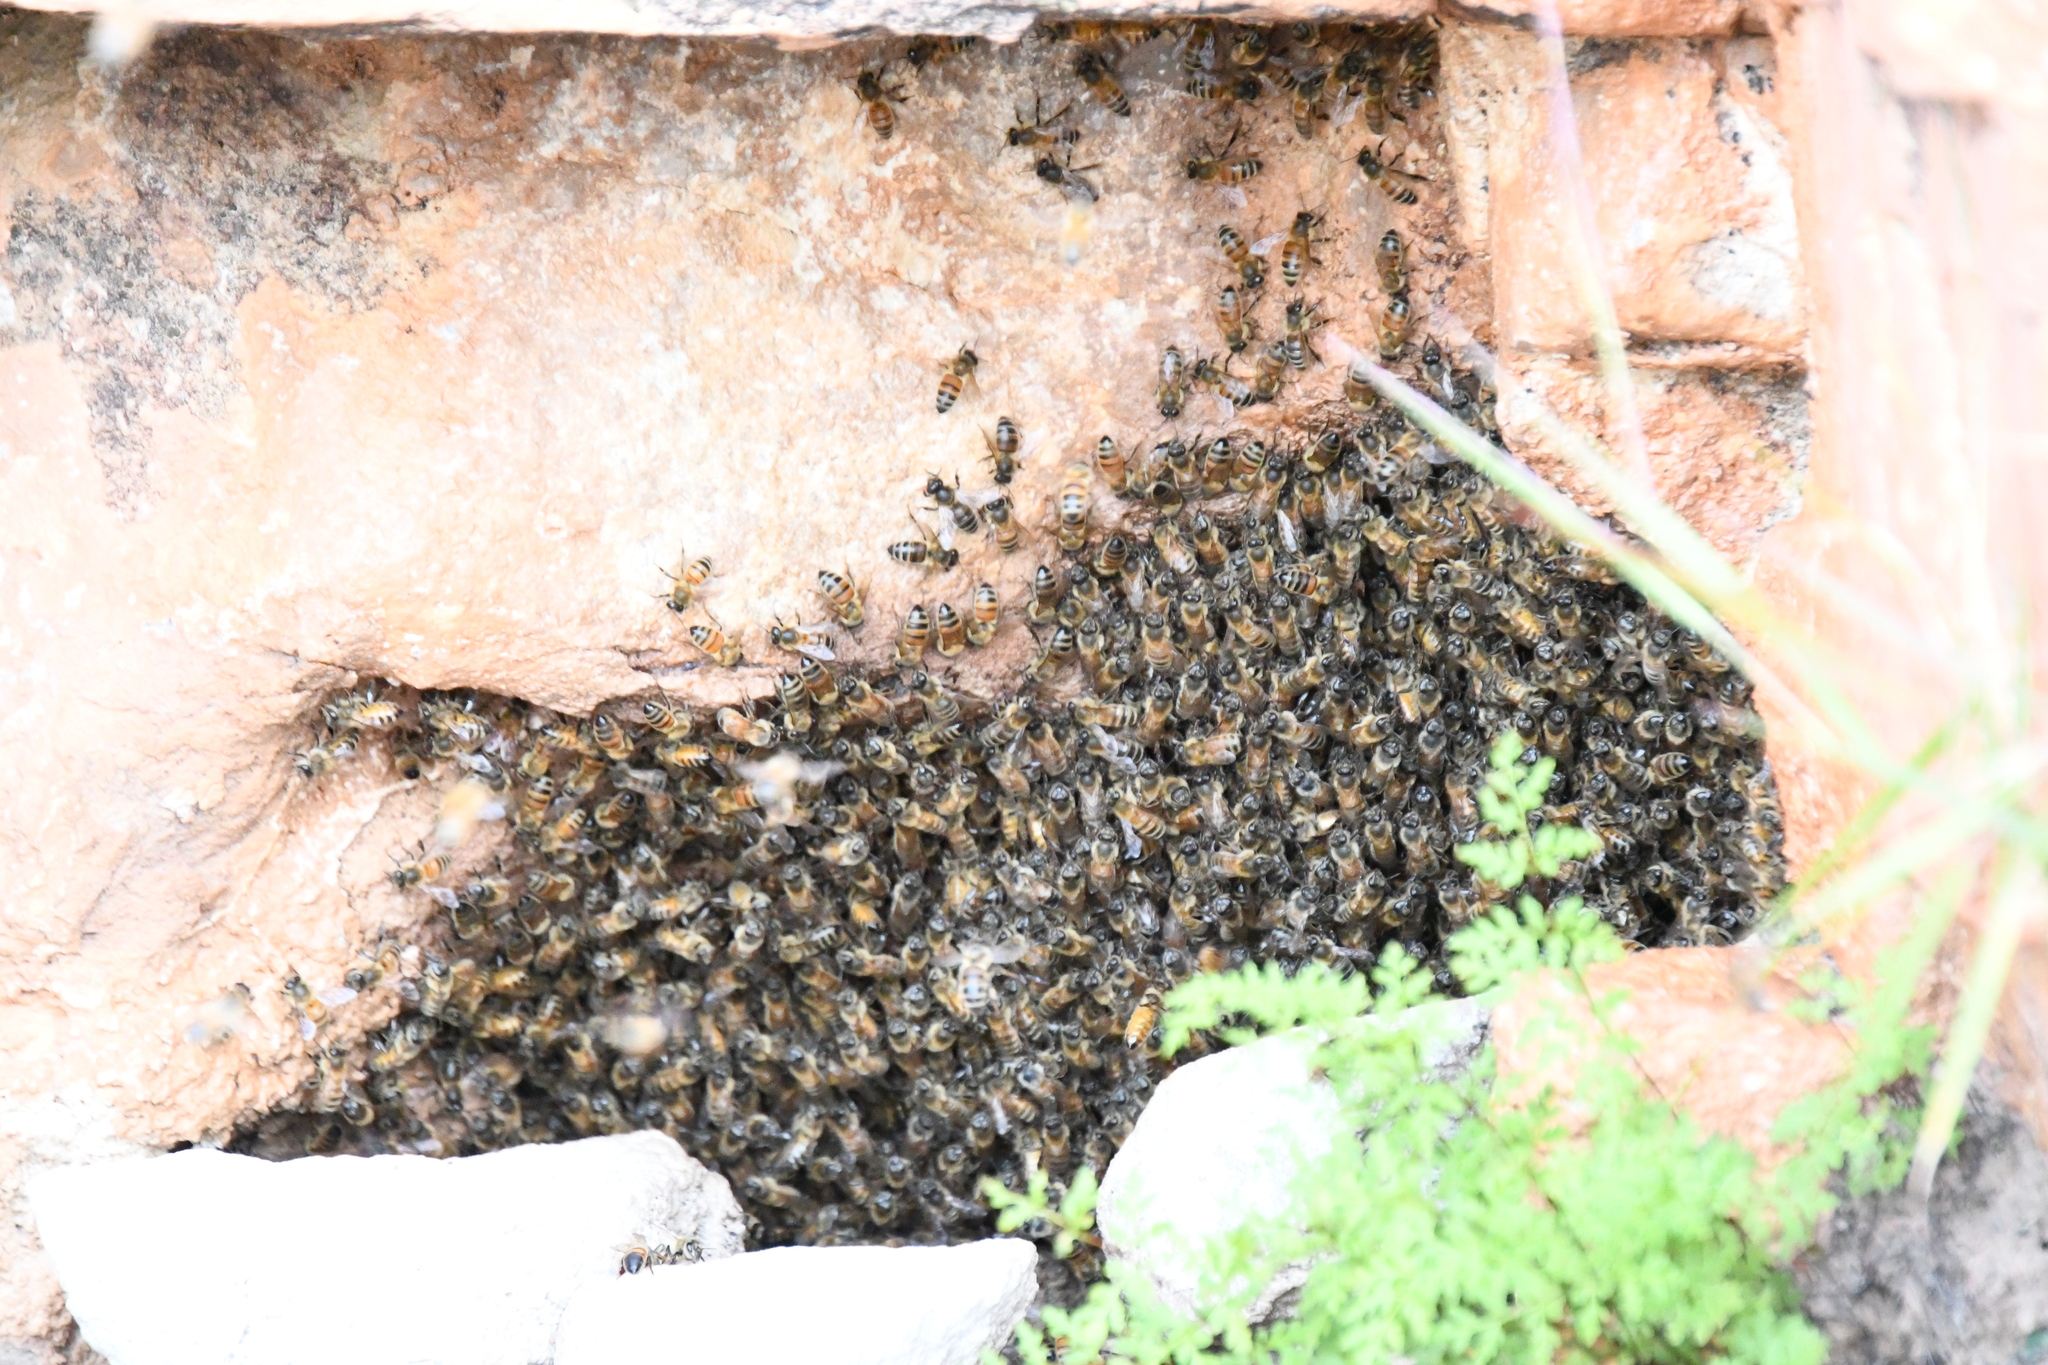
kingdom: Animalia
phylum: Arthropoda
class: Insecta
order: Hymenoptera
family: Apidae
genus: Apis
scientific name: Apis mellifera
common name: Honey bee
